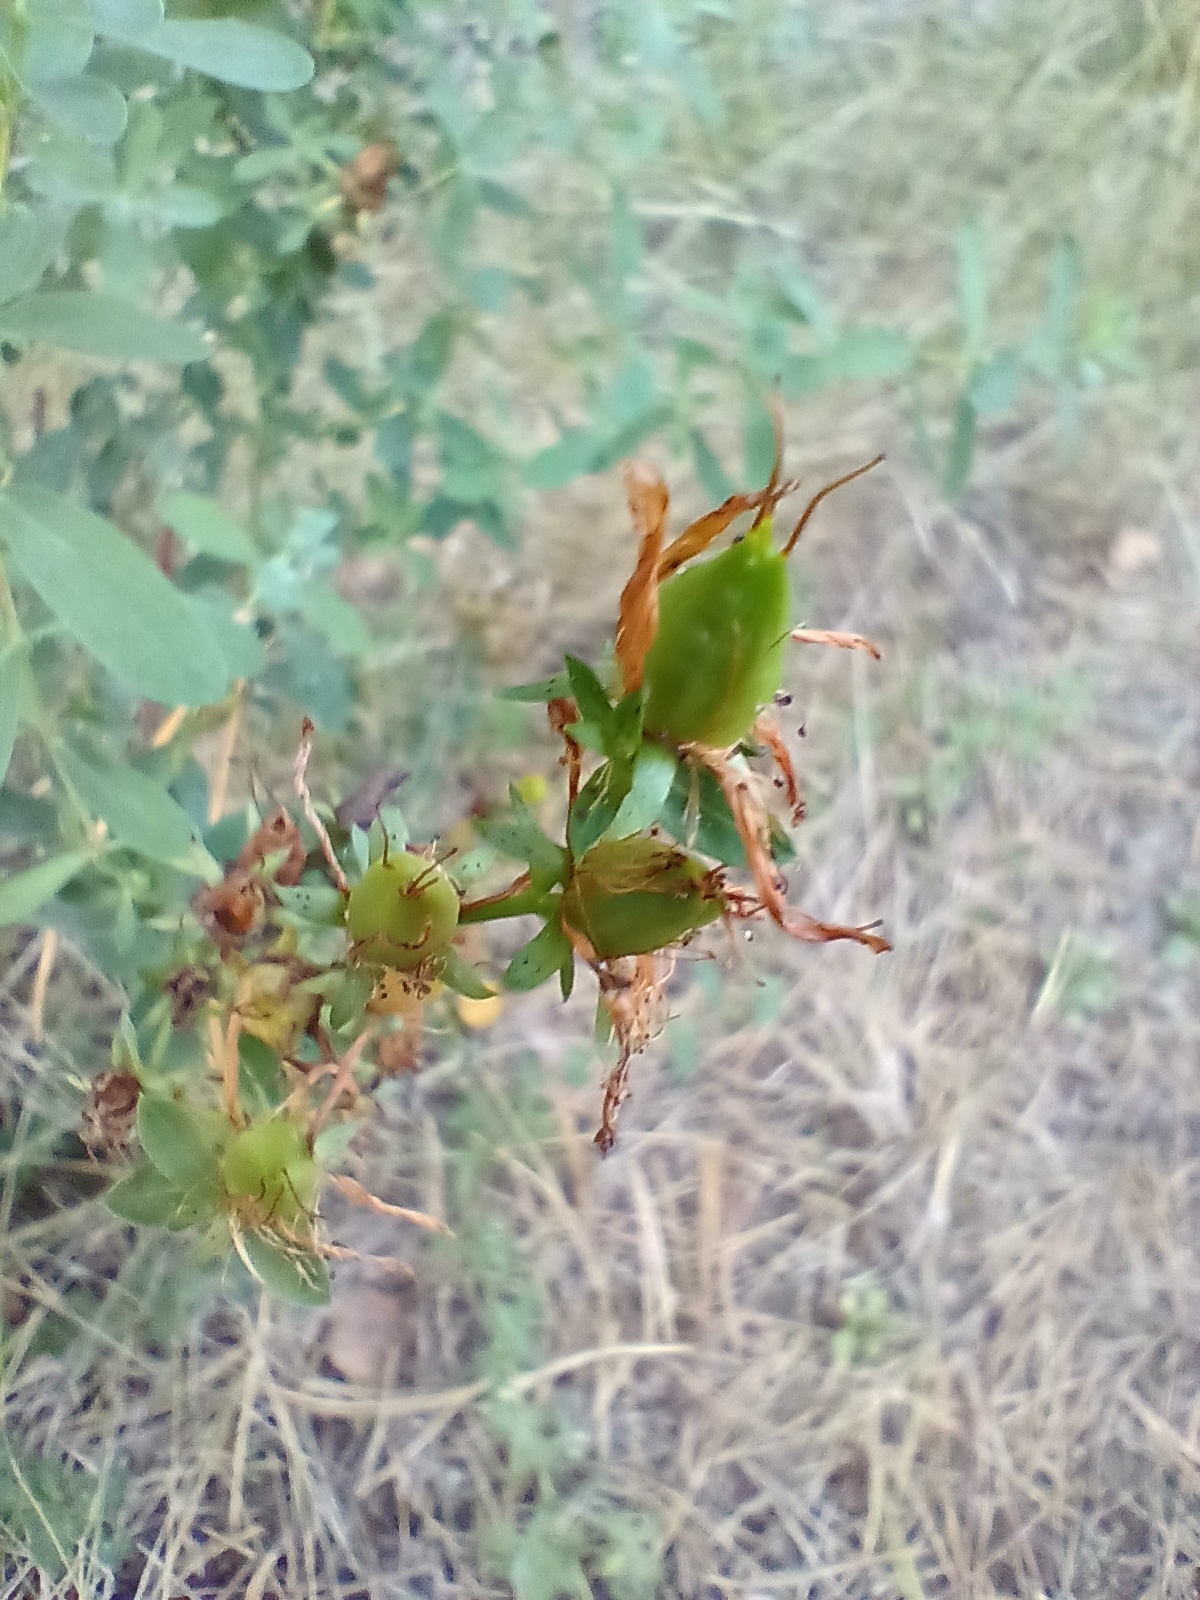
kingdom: Plantae
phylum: Tracheophyta
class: Magnoliopsida
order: Malpighiales
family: Hypericaceae
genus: Hypericum
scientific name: Hypericum perforatum
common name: Common st. johnswort
